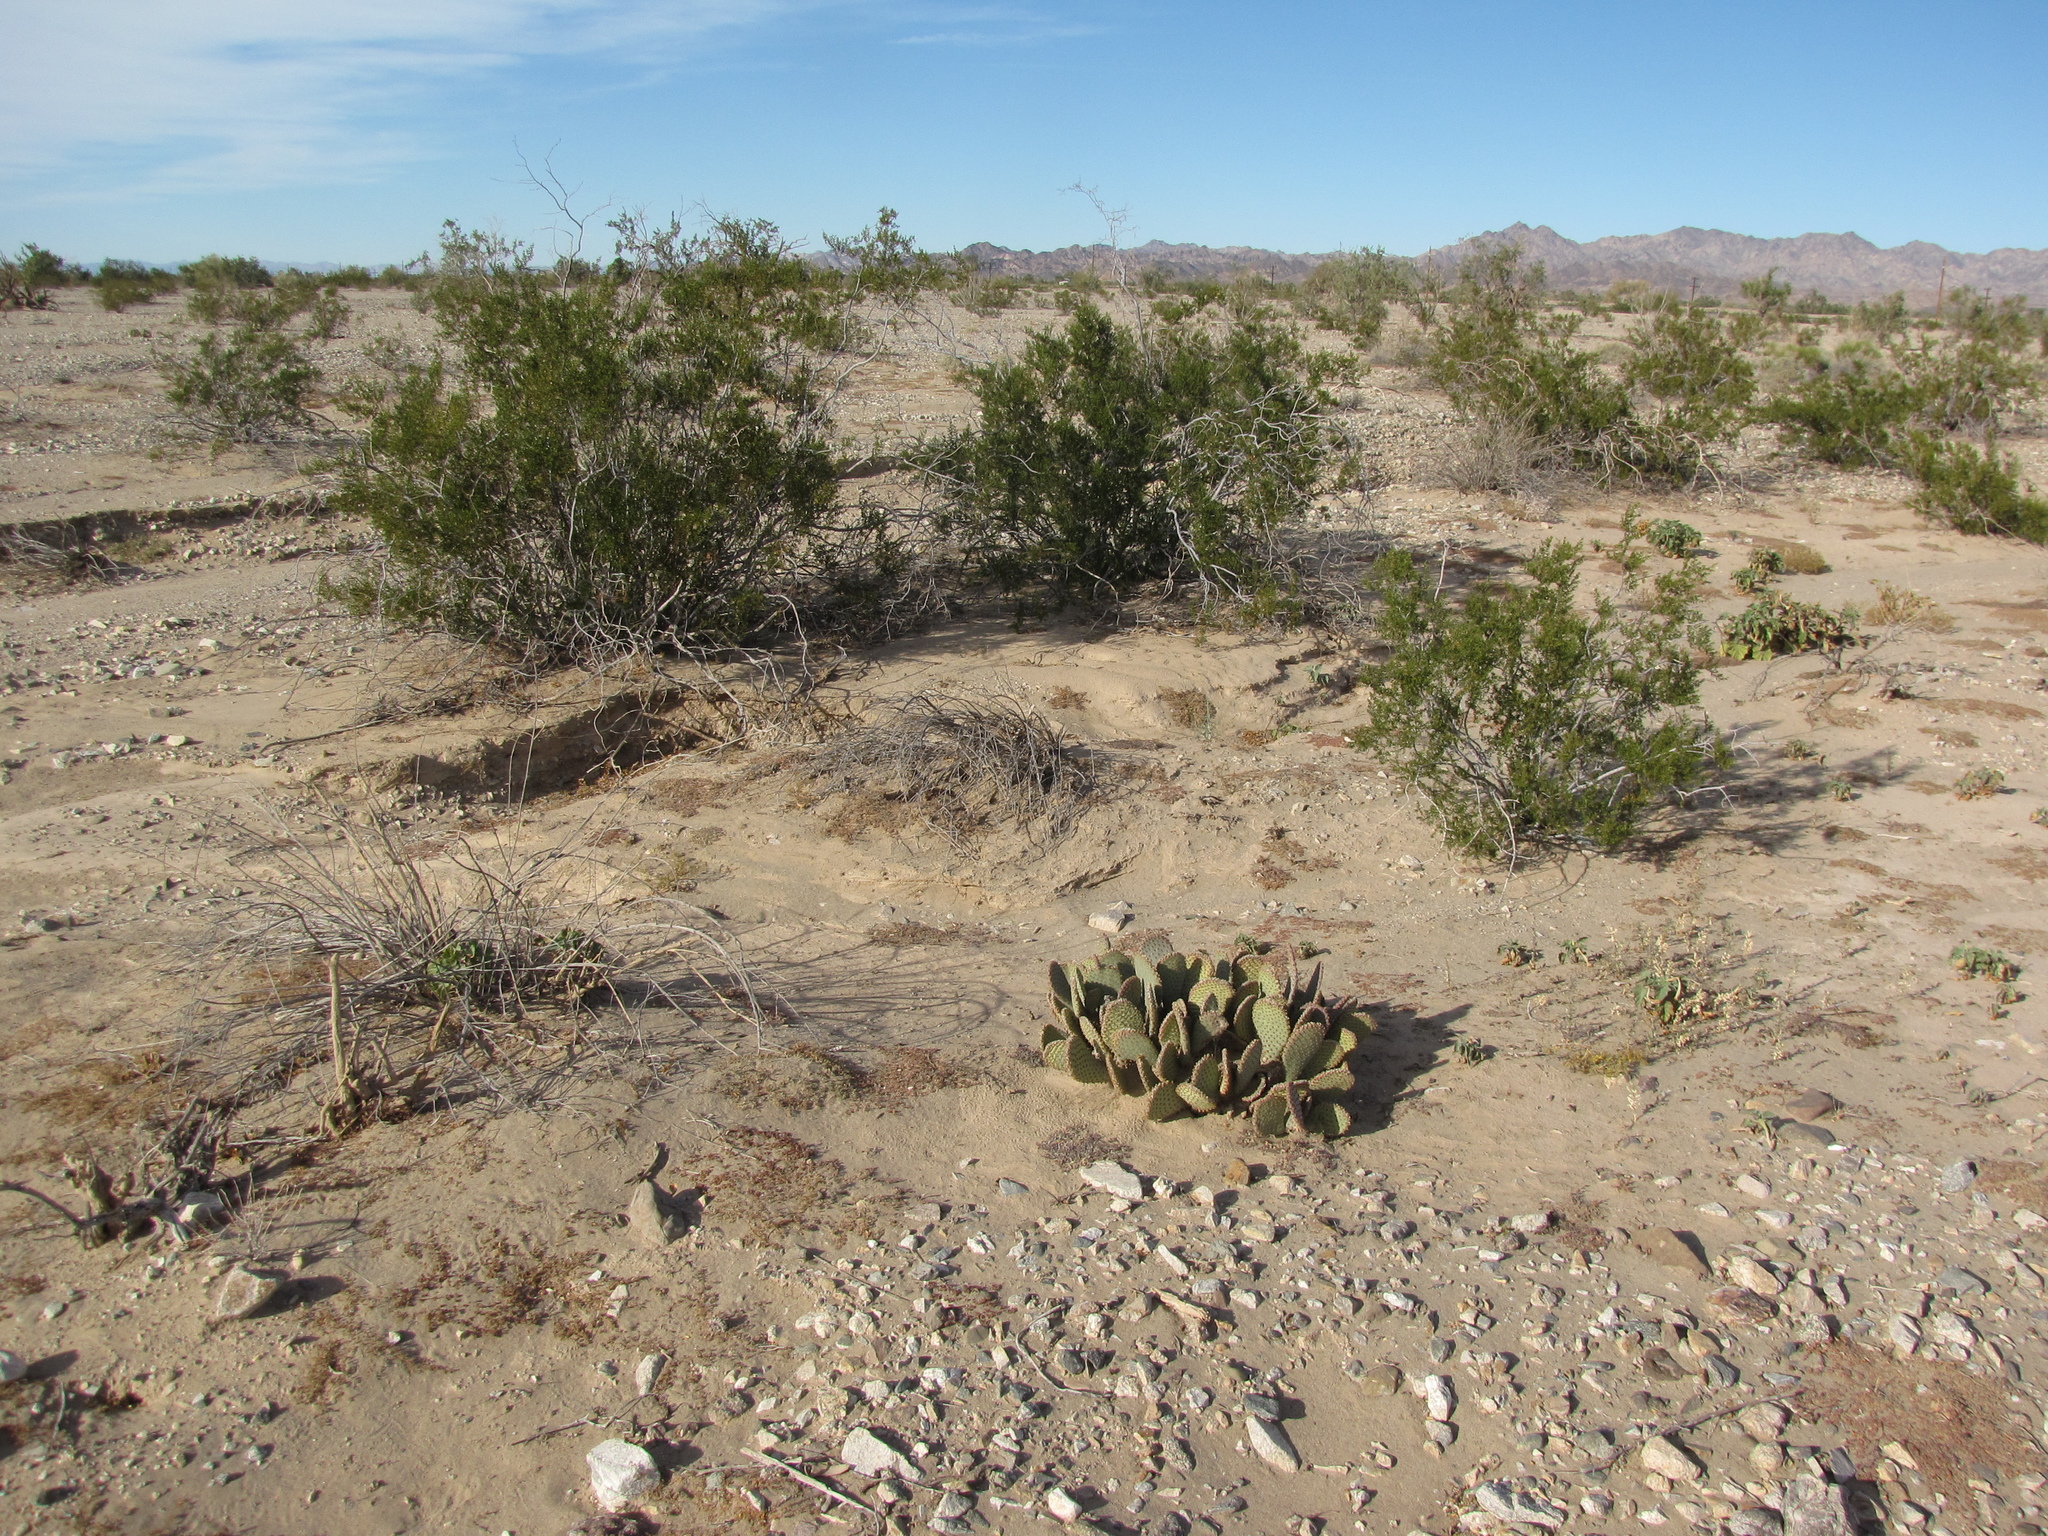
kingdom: Plantae
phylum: Tracheophyta
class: Magnoliopsida
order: Caryophyllales
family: Cactaceae
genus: Opuntia
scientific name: Opuntia basilaris
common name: Beavertail prickly-pear
